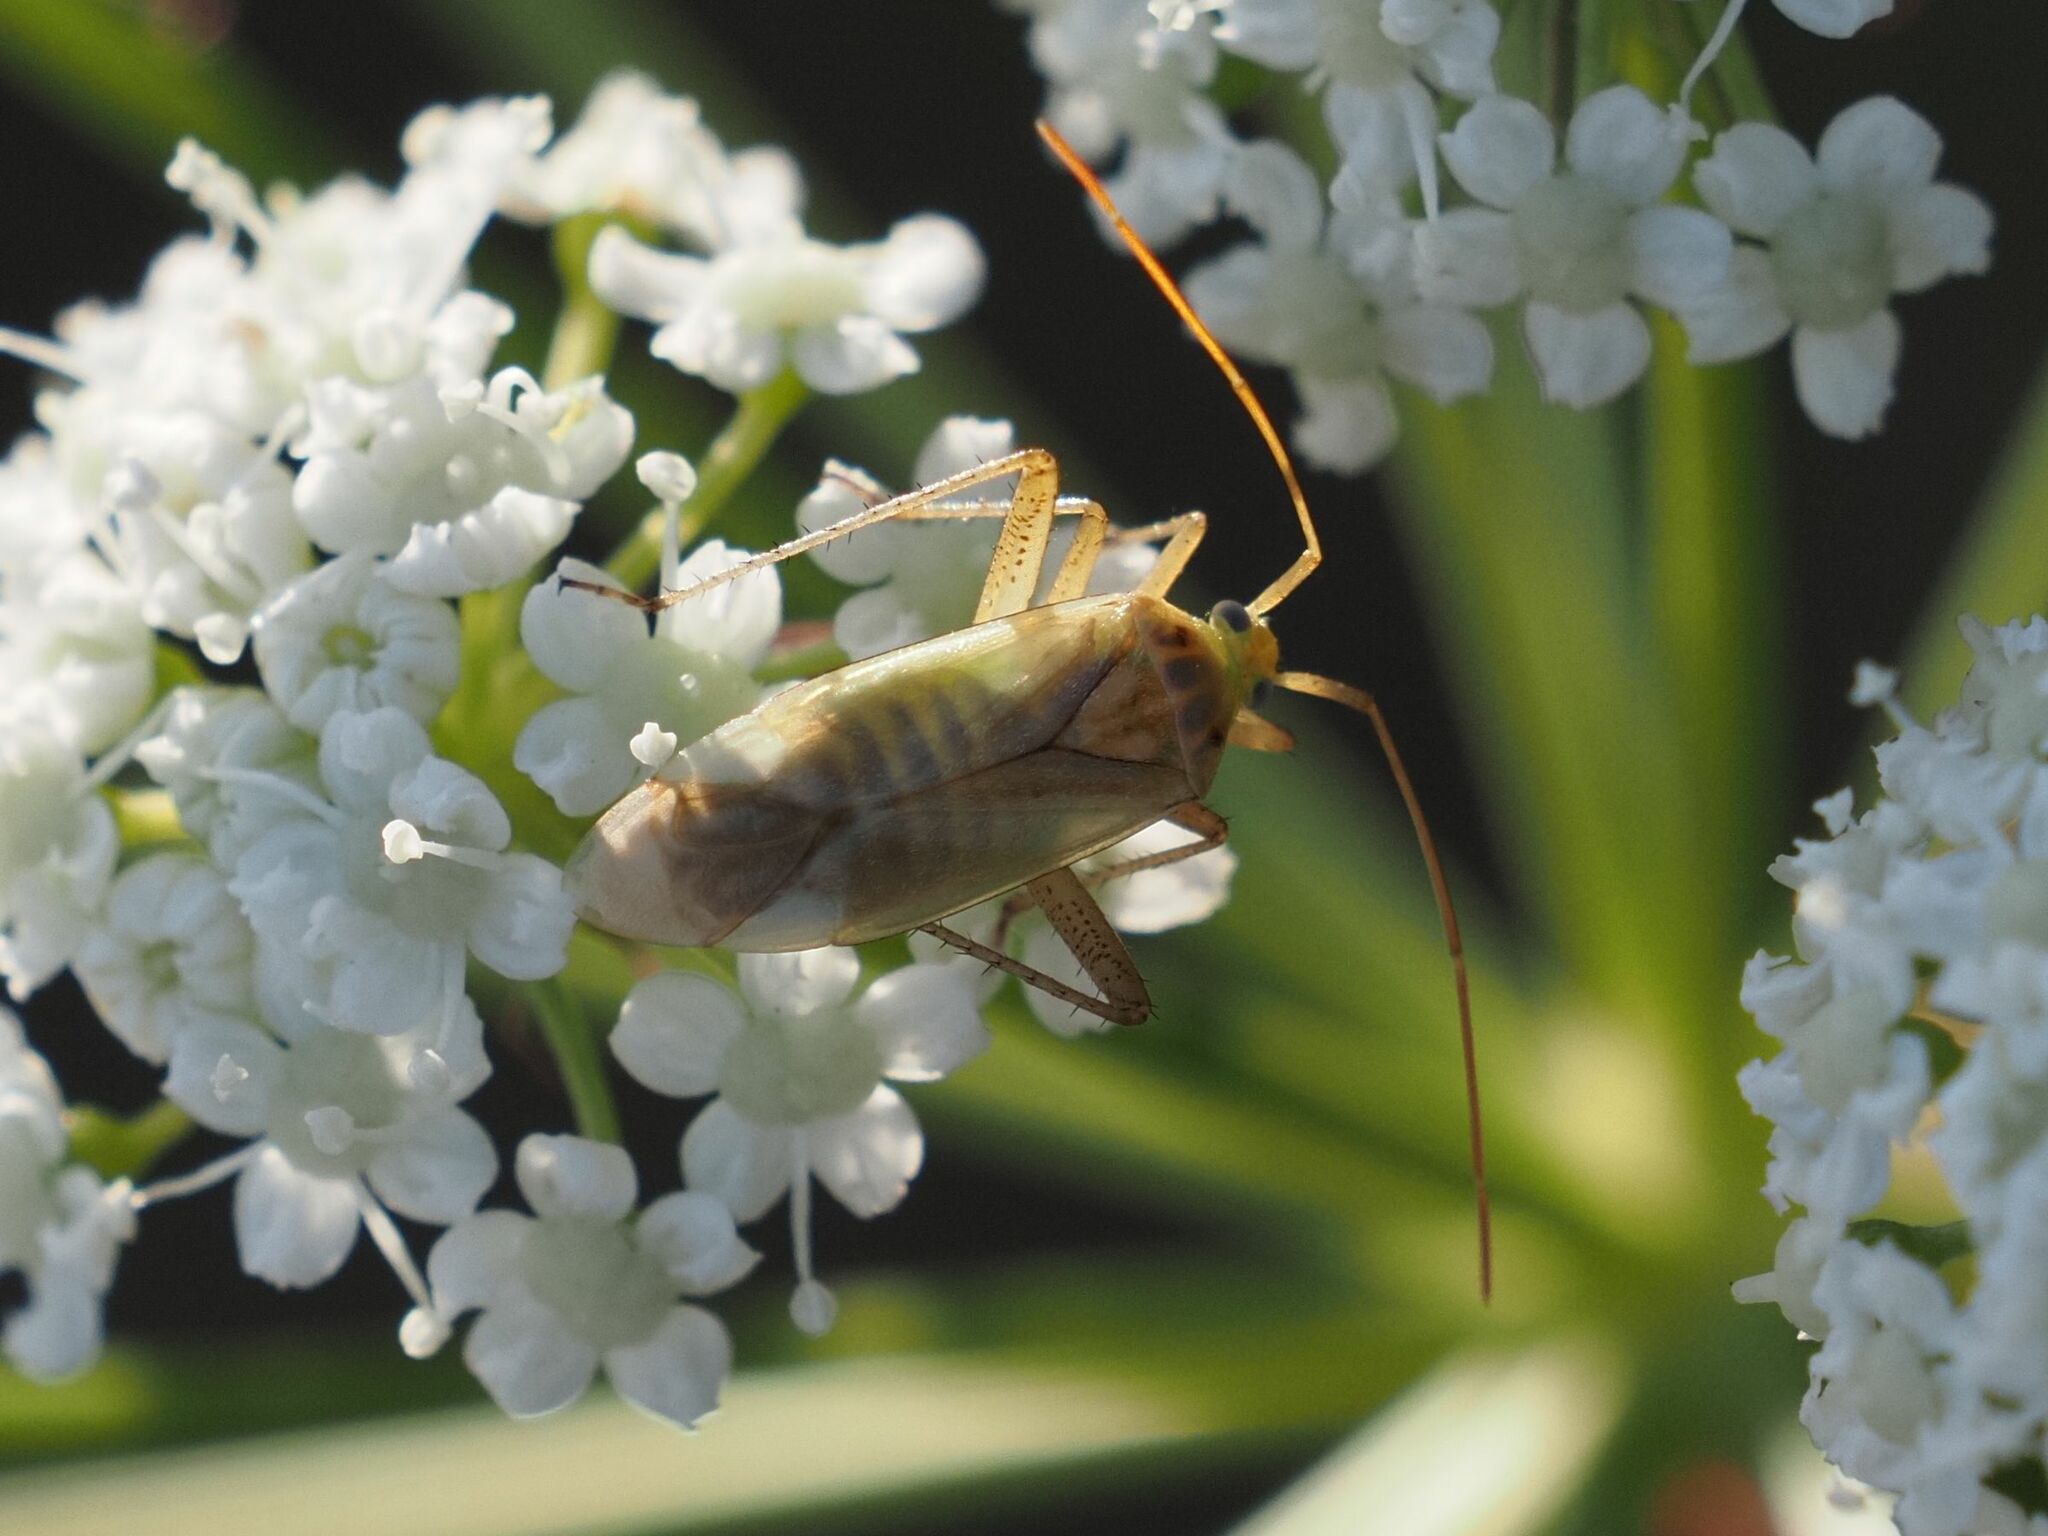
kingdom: Animalia
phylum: Arthropoda
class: Insecta
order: Hemiptera
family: Miridae
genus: Adelphocoris
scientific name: Adelphocoris lineolatus
